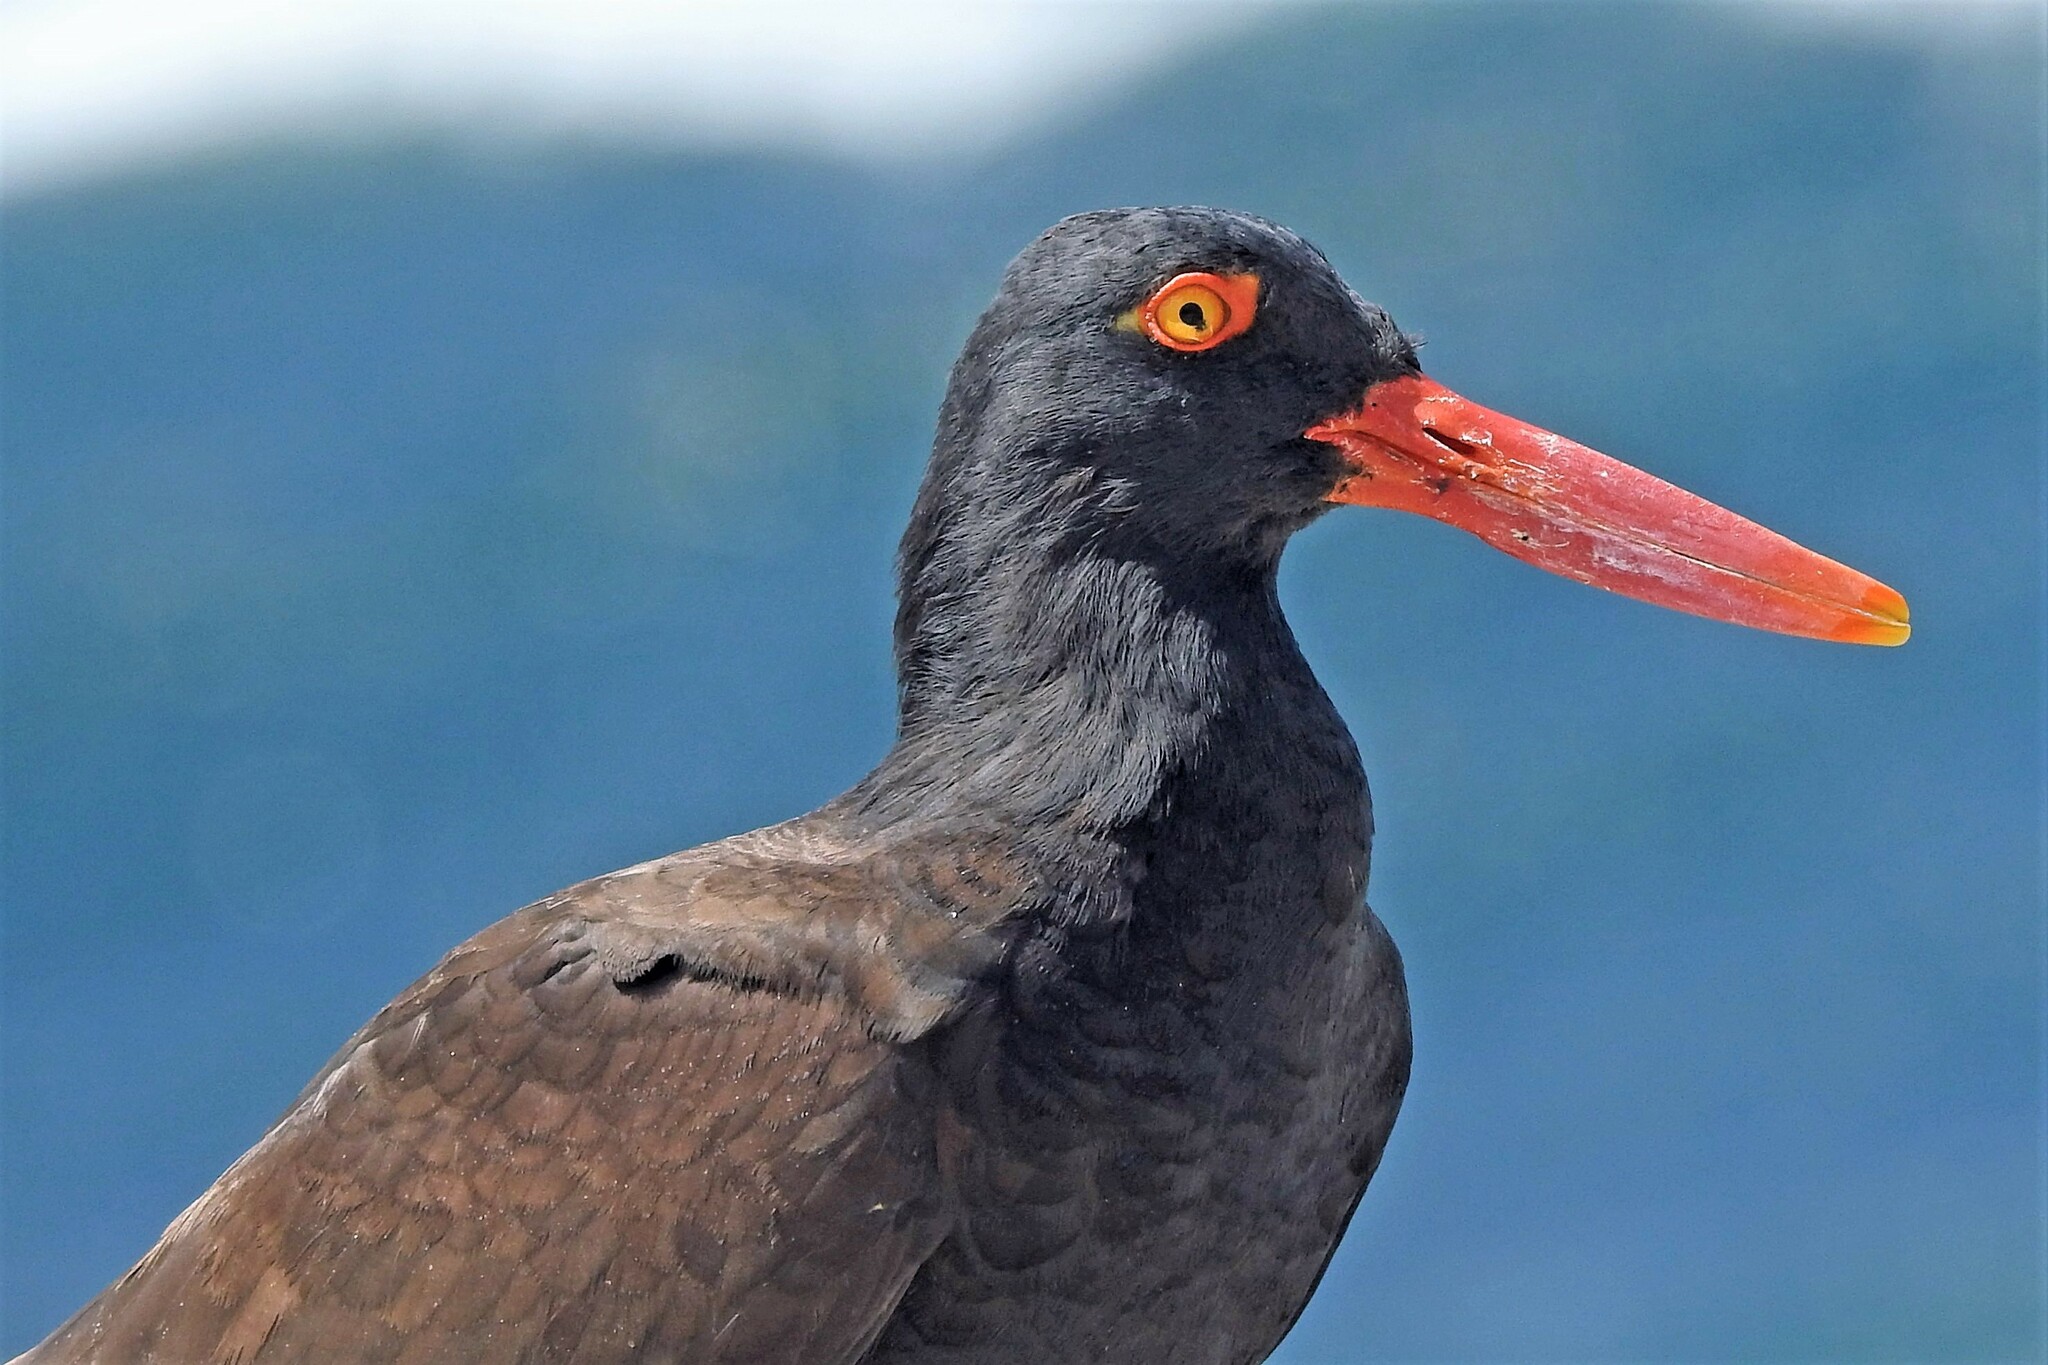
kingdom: Animalia
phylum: Chordata
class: Aves
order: Charadriiformes
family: Haematopodidae
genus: Haematopus
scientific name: Haematopus ater
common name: Blackish oystercatcher
